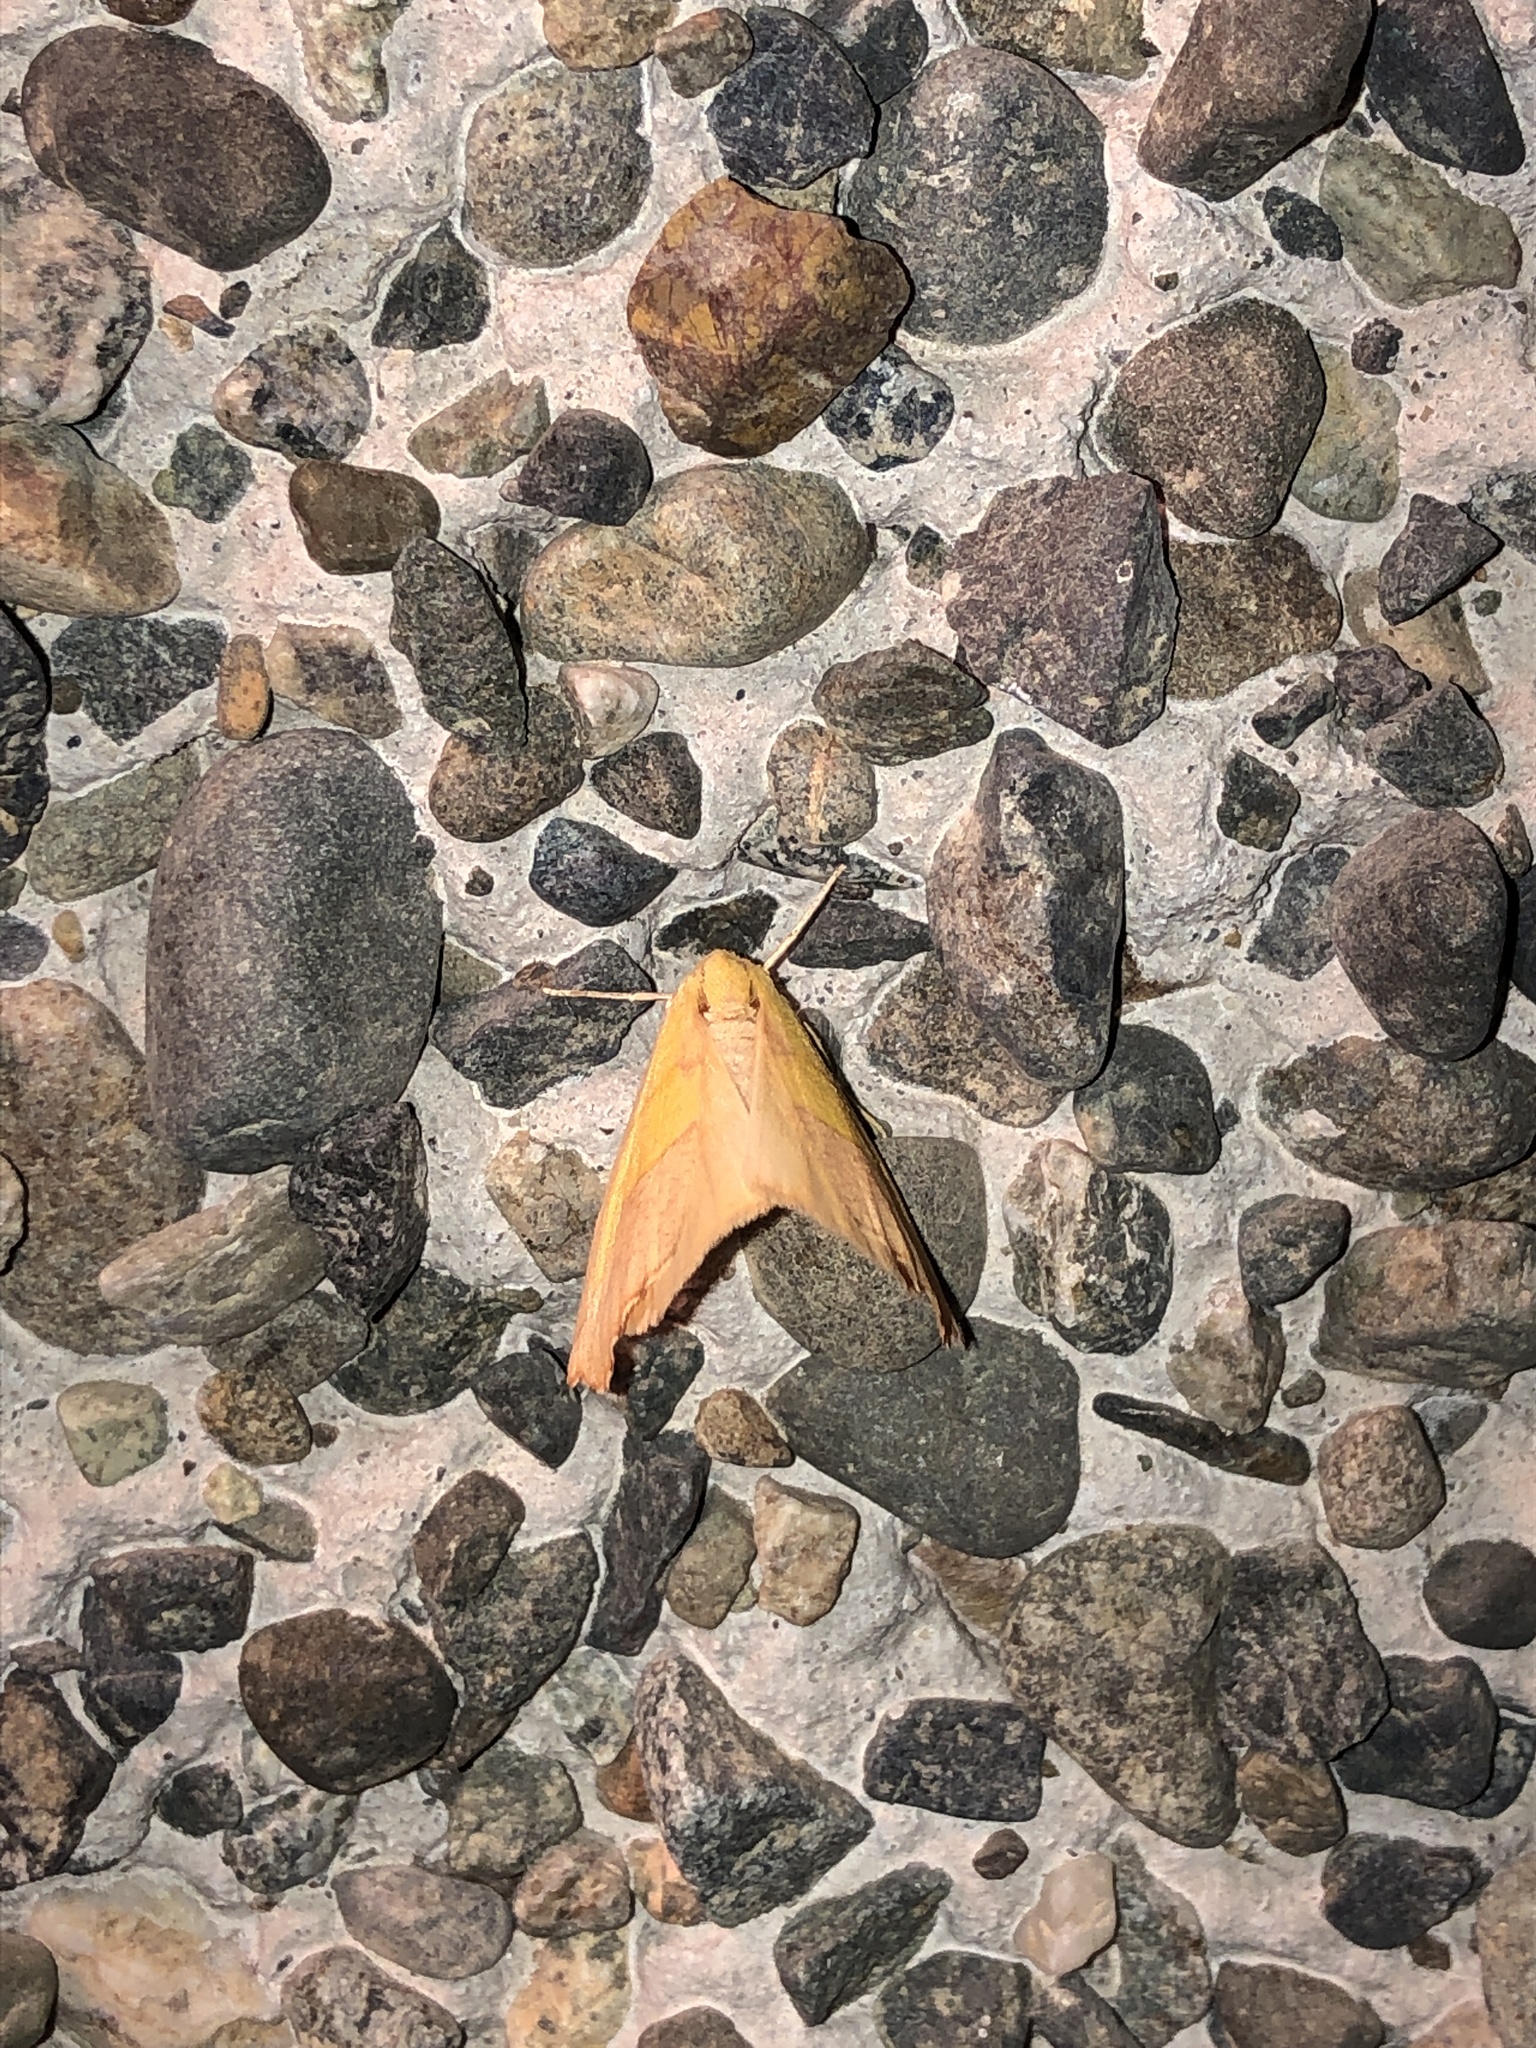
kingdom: Animalia
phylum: Arthropoda
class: Insecta
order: Lepidoptera
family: Geometridae
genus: Sicya
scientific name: Sicya macularia
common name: Sharp-lined yellow
